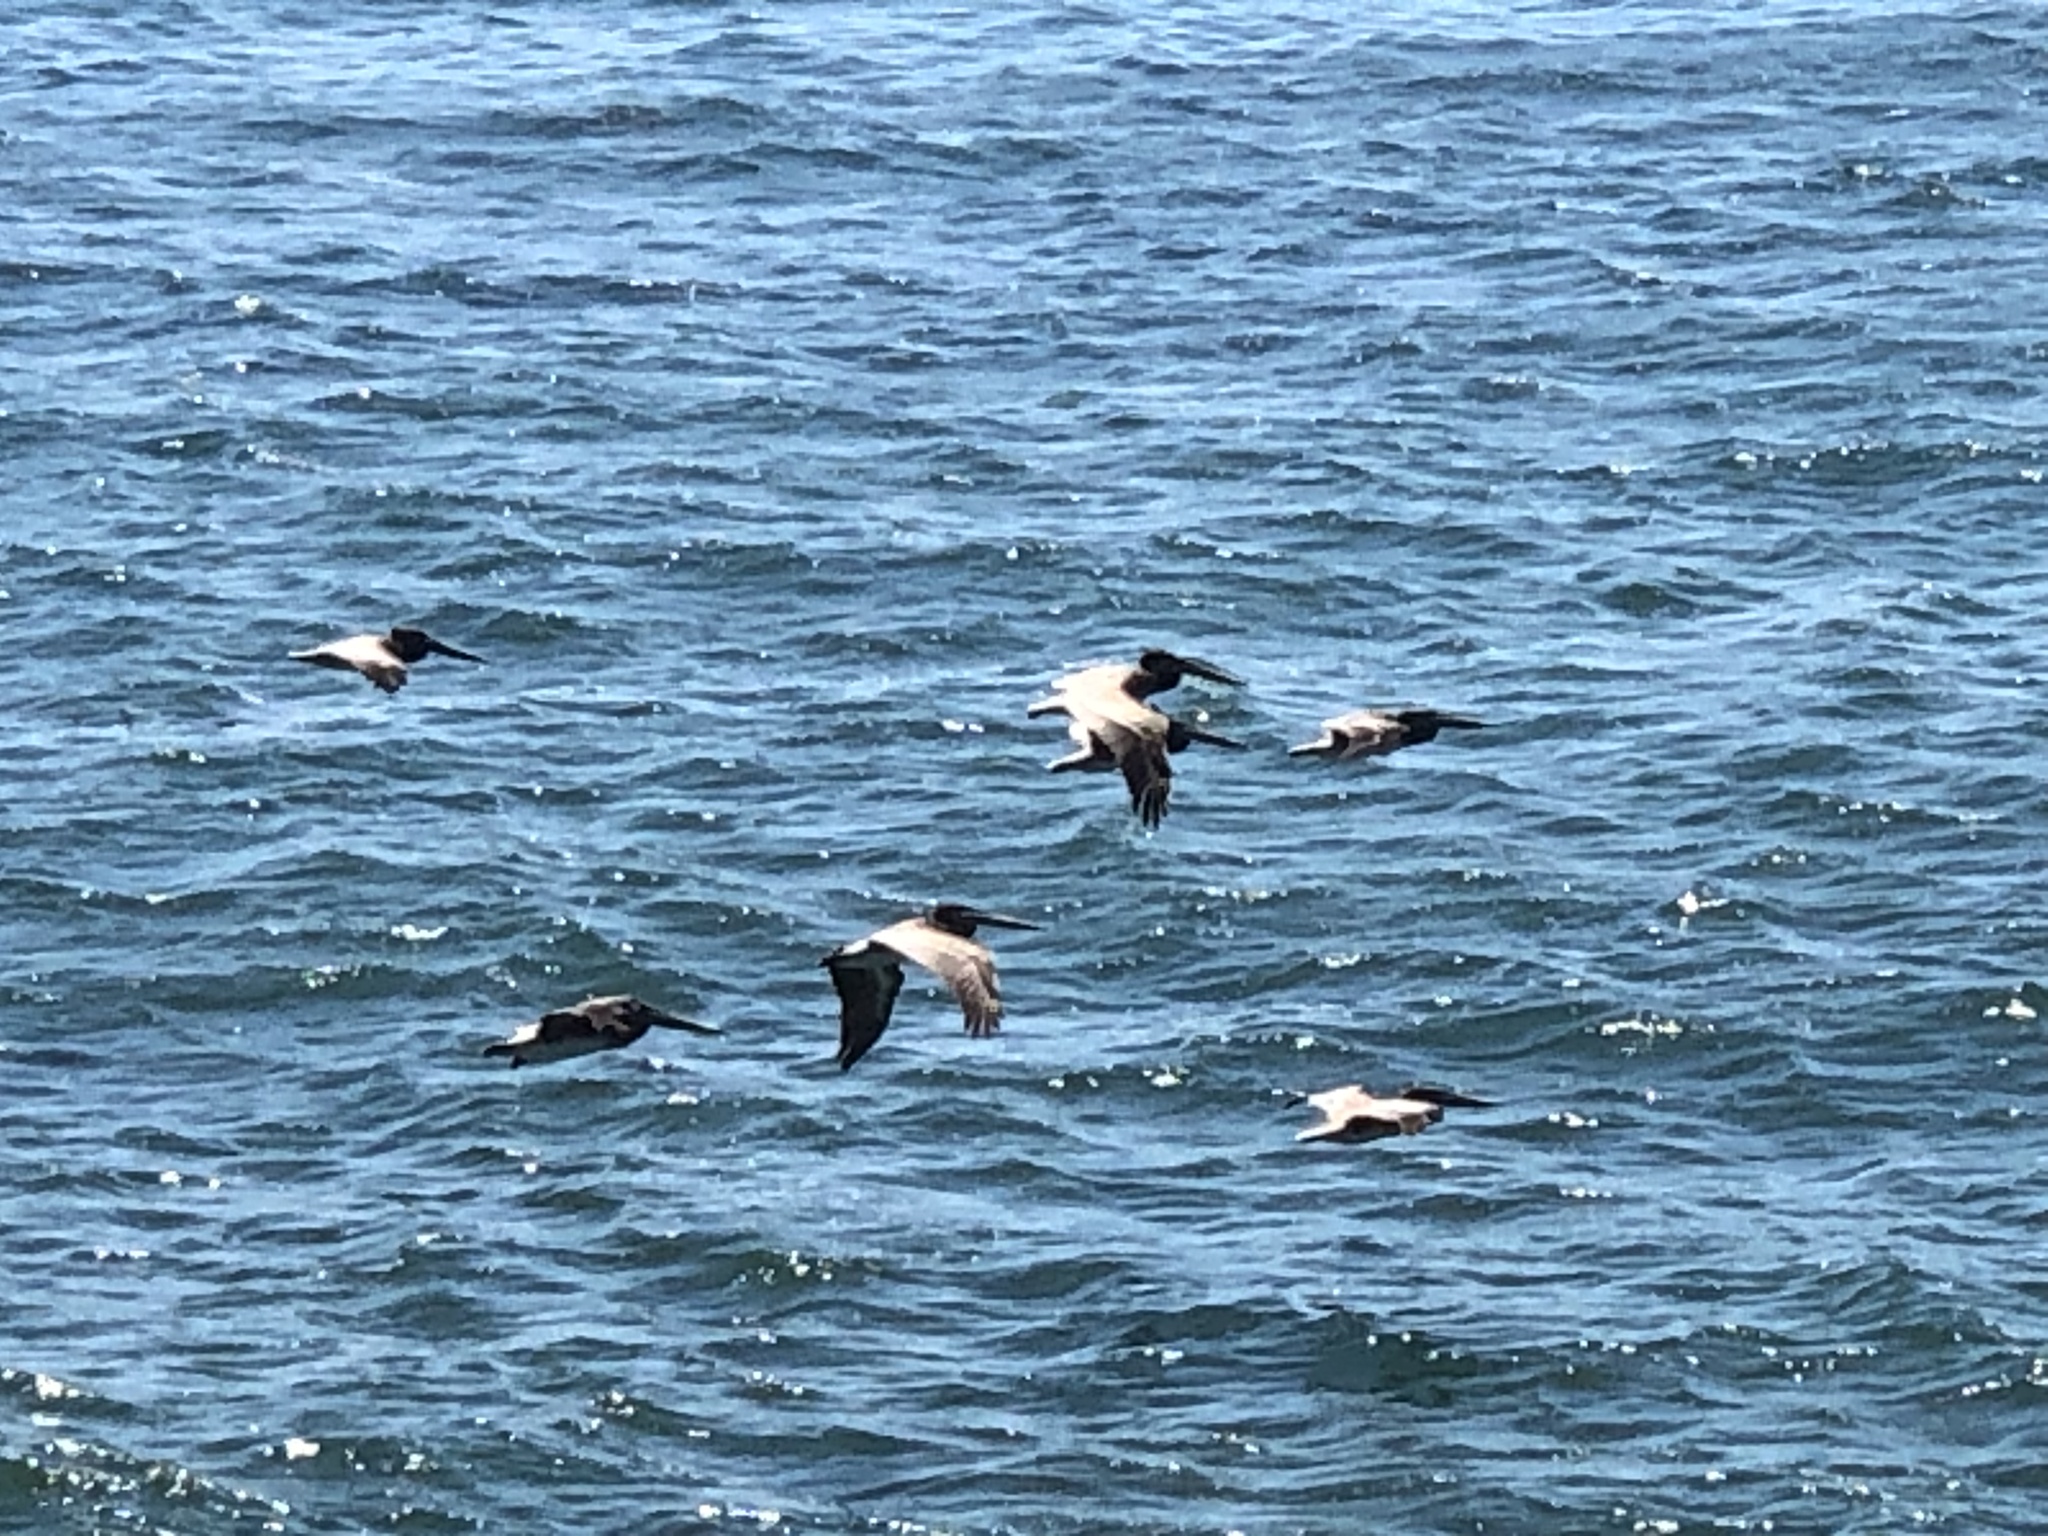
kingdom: Animalia
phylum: Chordata
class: Aves
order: Pelecaniformes
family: Pelecanidae
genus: Pelecanus
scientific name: Pelecanus occidentalis
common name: Brown pelican
